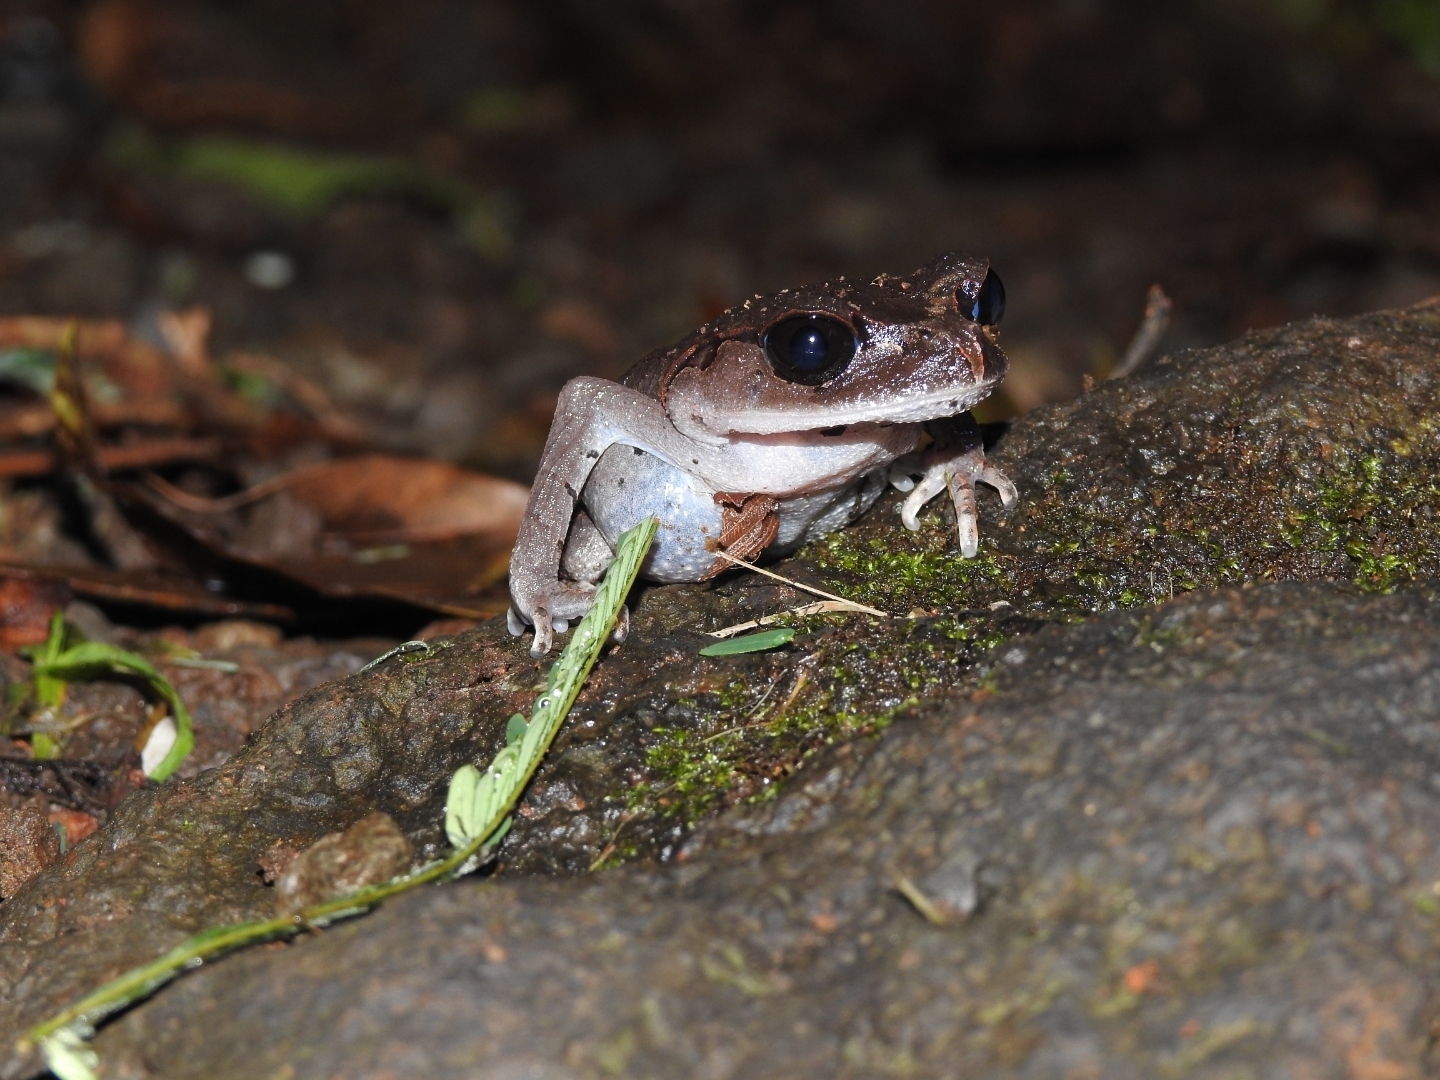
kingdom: Animalia
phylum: Chordata
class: Amphibia
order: Anura
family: Megophryidae
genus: Leptobrachium
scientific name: Leptobrachium hasseltii
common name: Hasselt's litter frog
